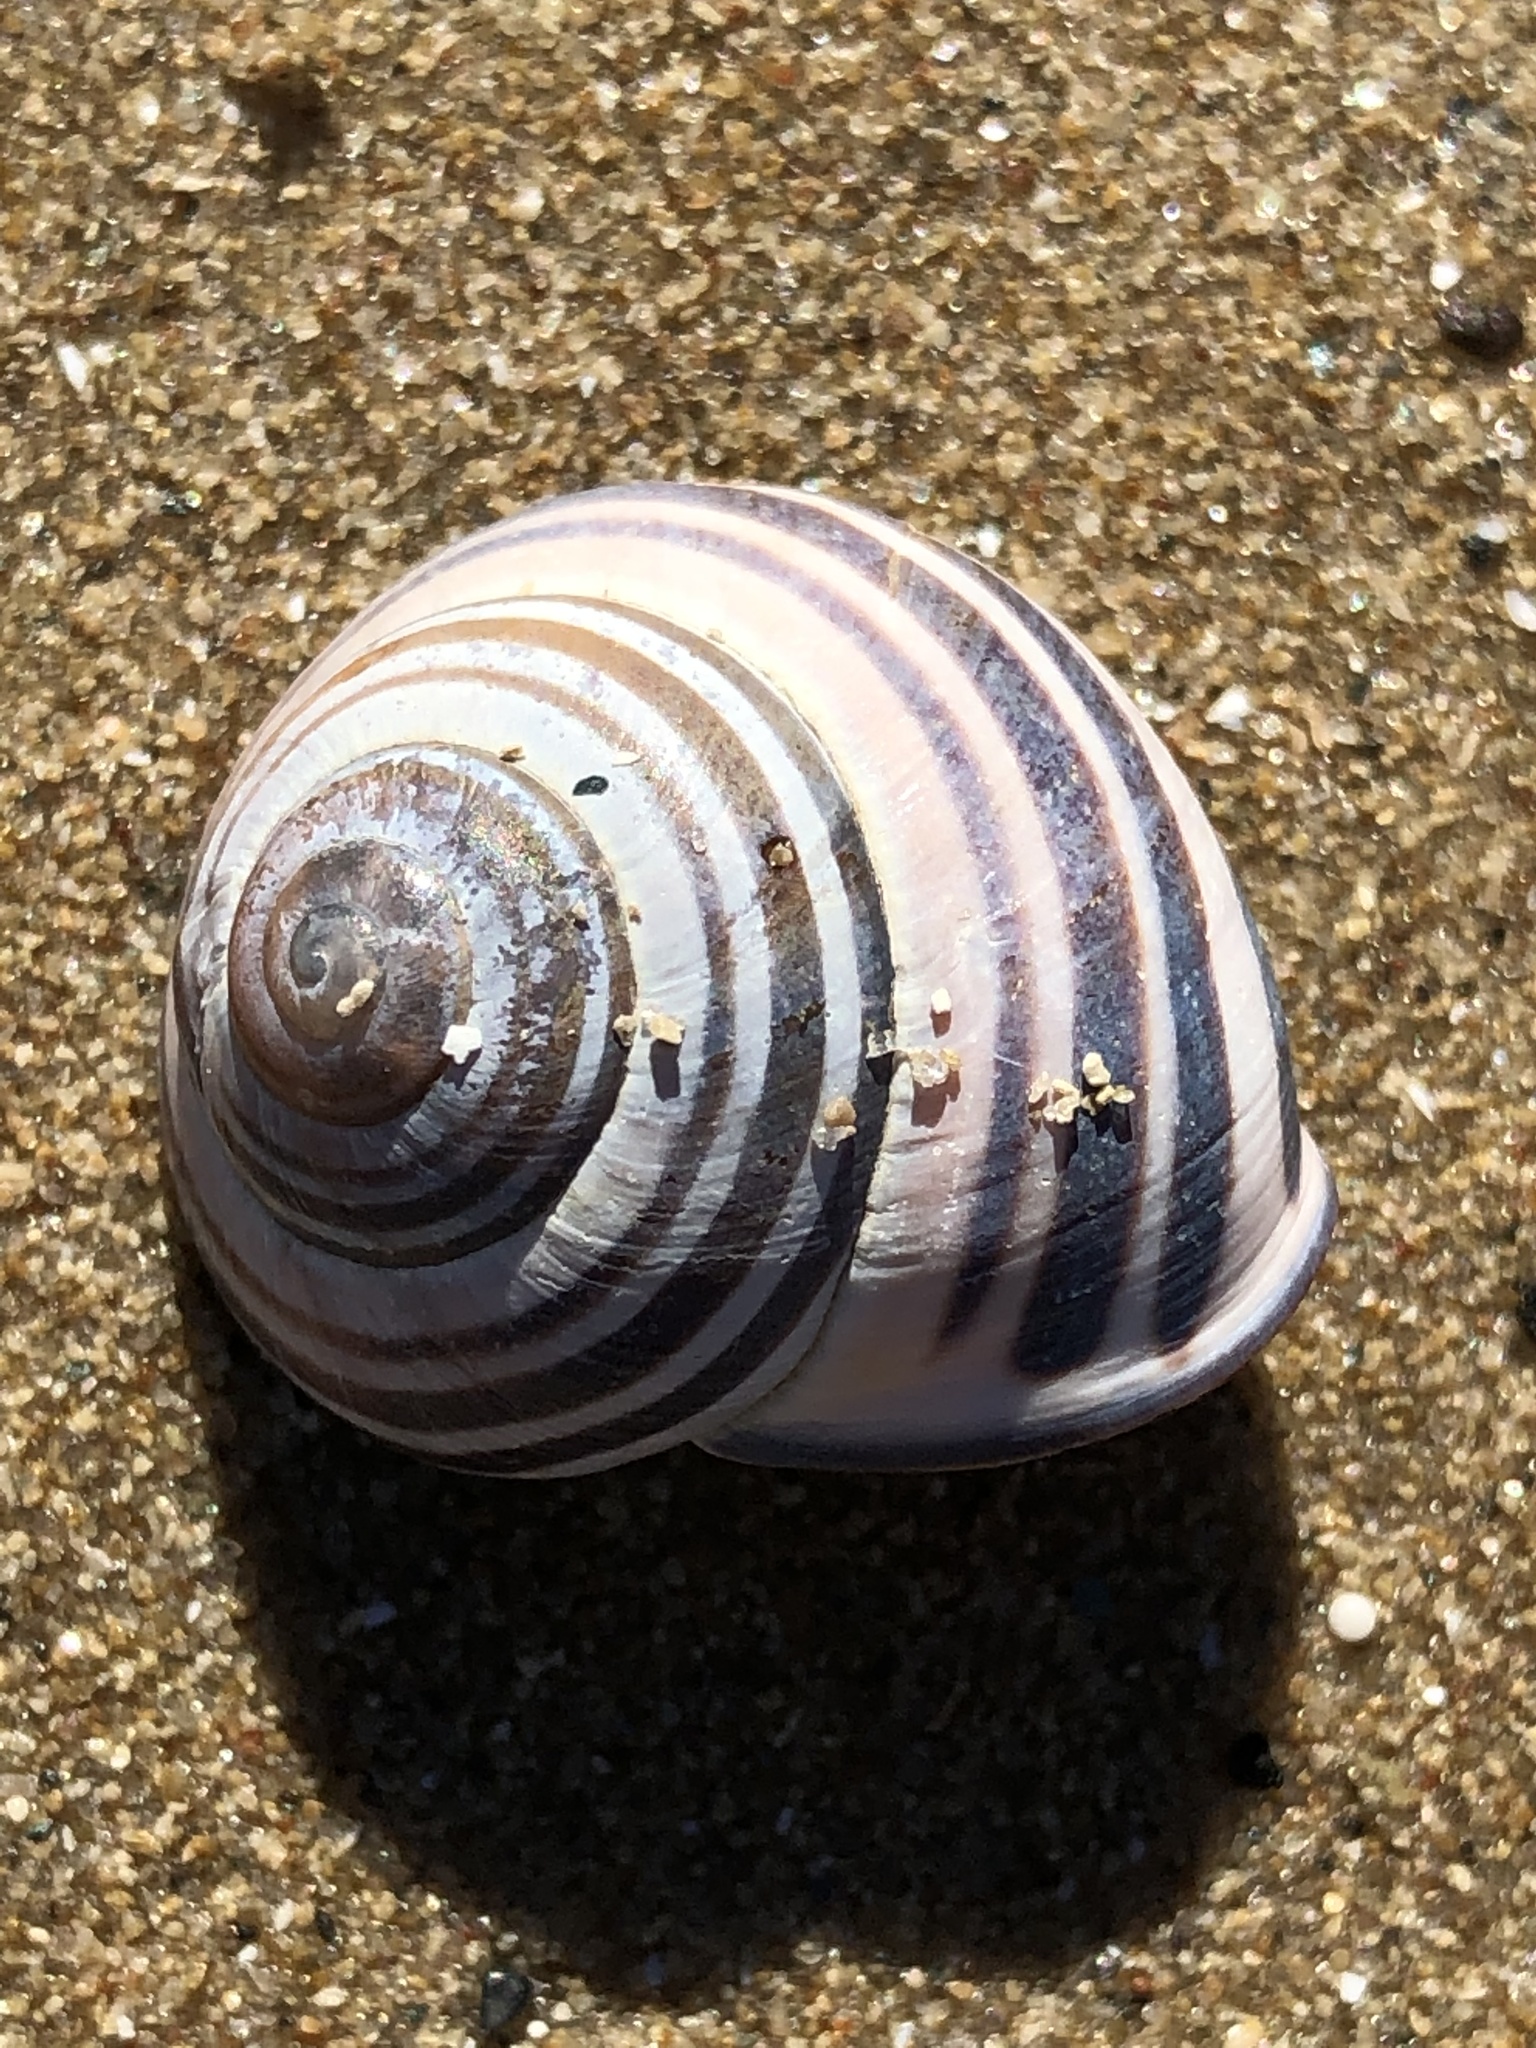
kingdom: Animalia
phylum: Mollusca
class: Gastropoda
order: Stylommatophora
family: Helicidae
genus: Cepaea
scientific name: Cepaea nemoralis
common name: Grovesnail
